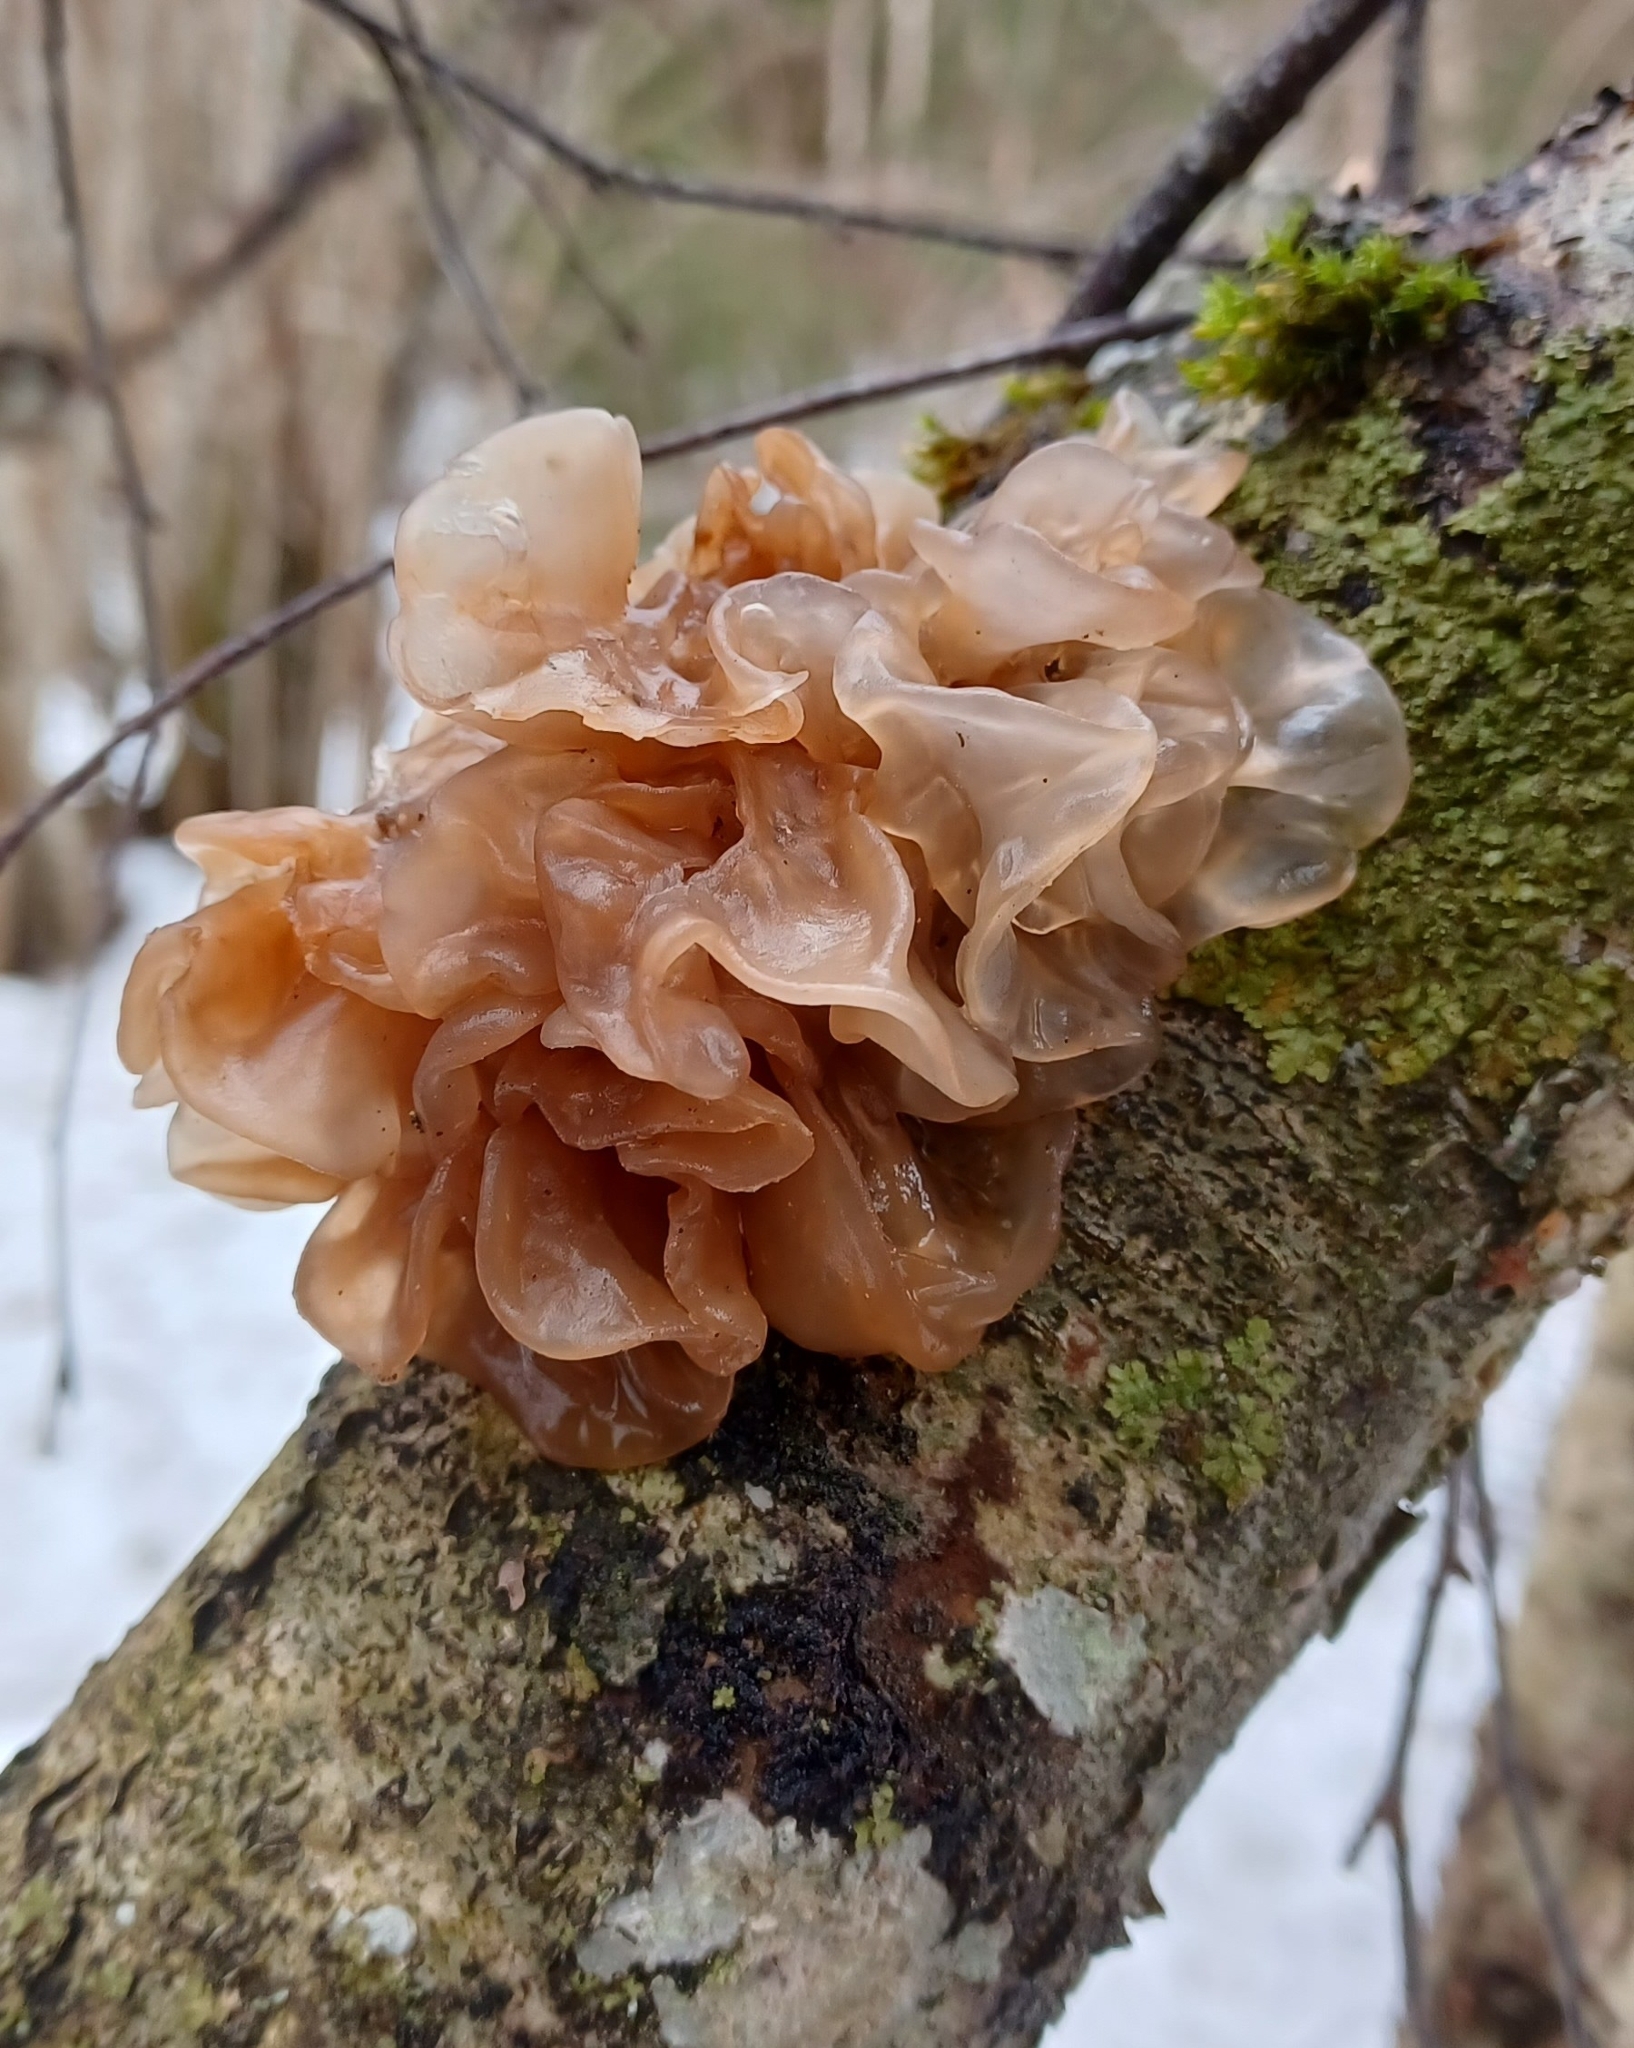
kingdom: Fungi
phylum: Basidiomycota
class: Tremellomycetes
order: Tremellales
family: Tremellaceae
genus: Phaeotremella
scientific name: Phaeotremella frondosa
